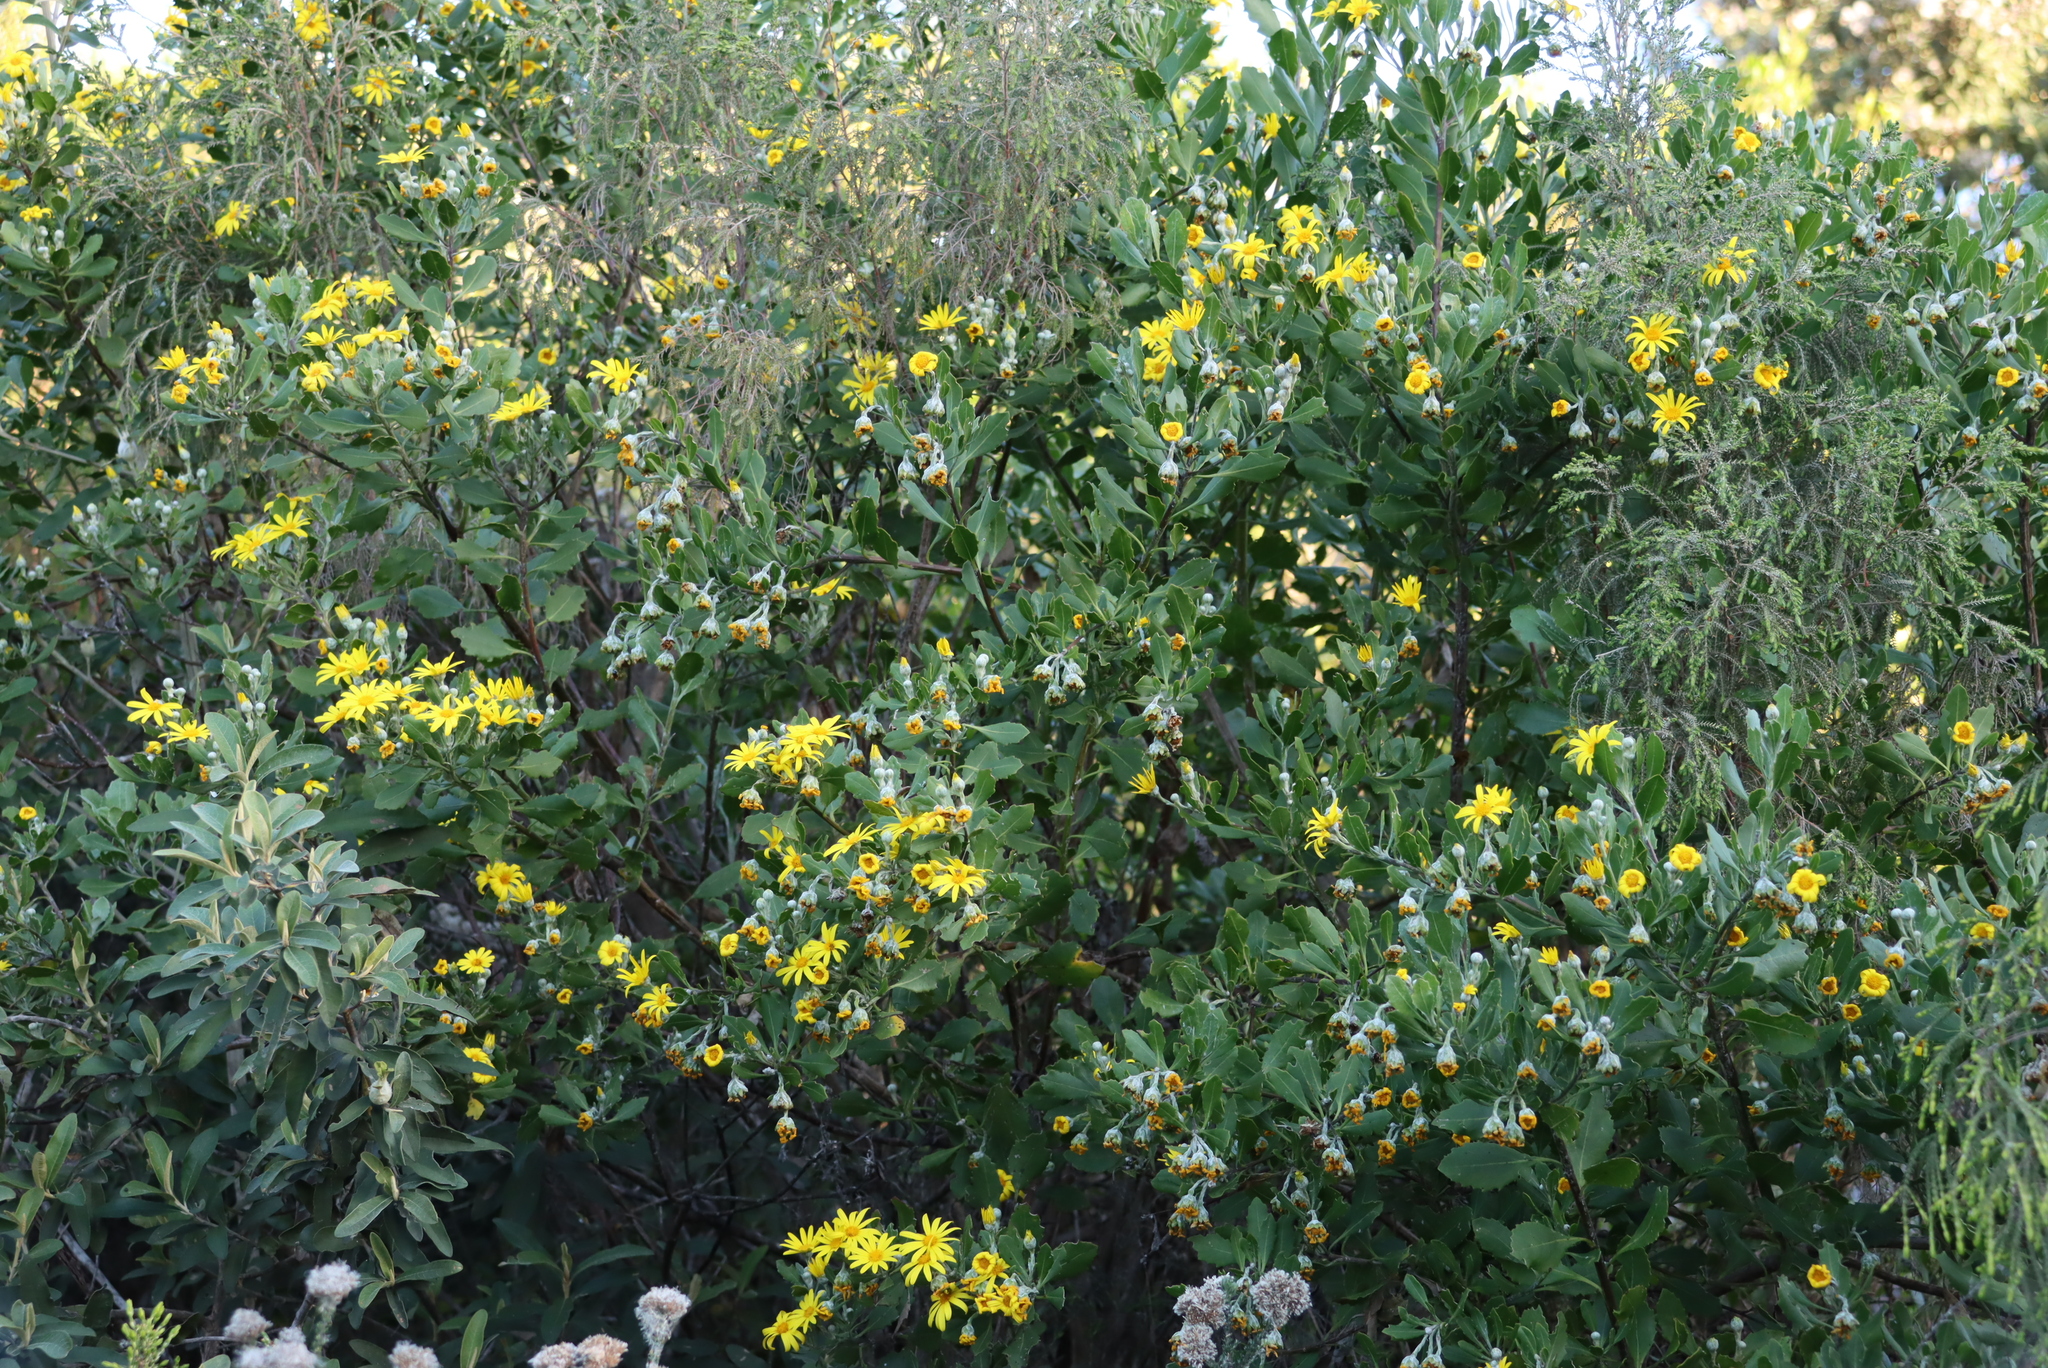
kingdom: Plantae
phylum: Tracheophyta
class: Magnoliopsida
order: Asterales
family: Asteraceae
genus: Osteospermum
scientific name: Osteospermum moniliferum
